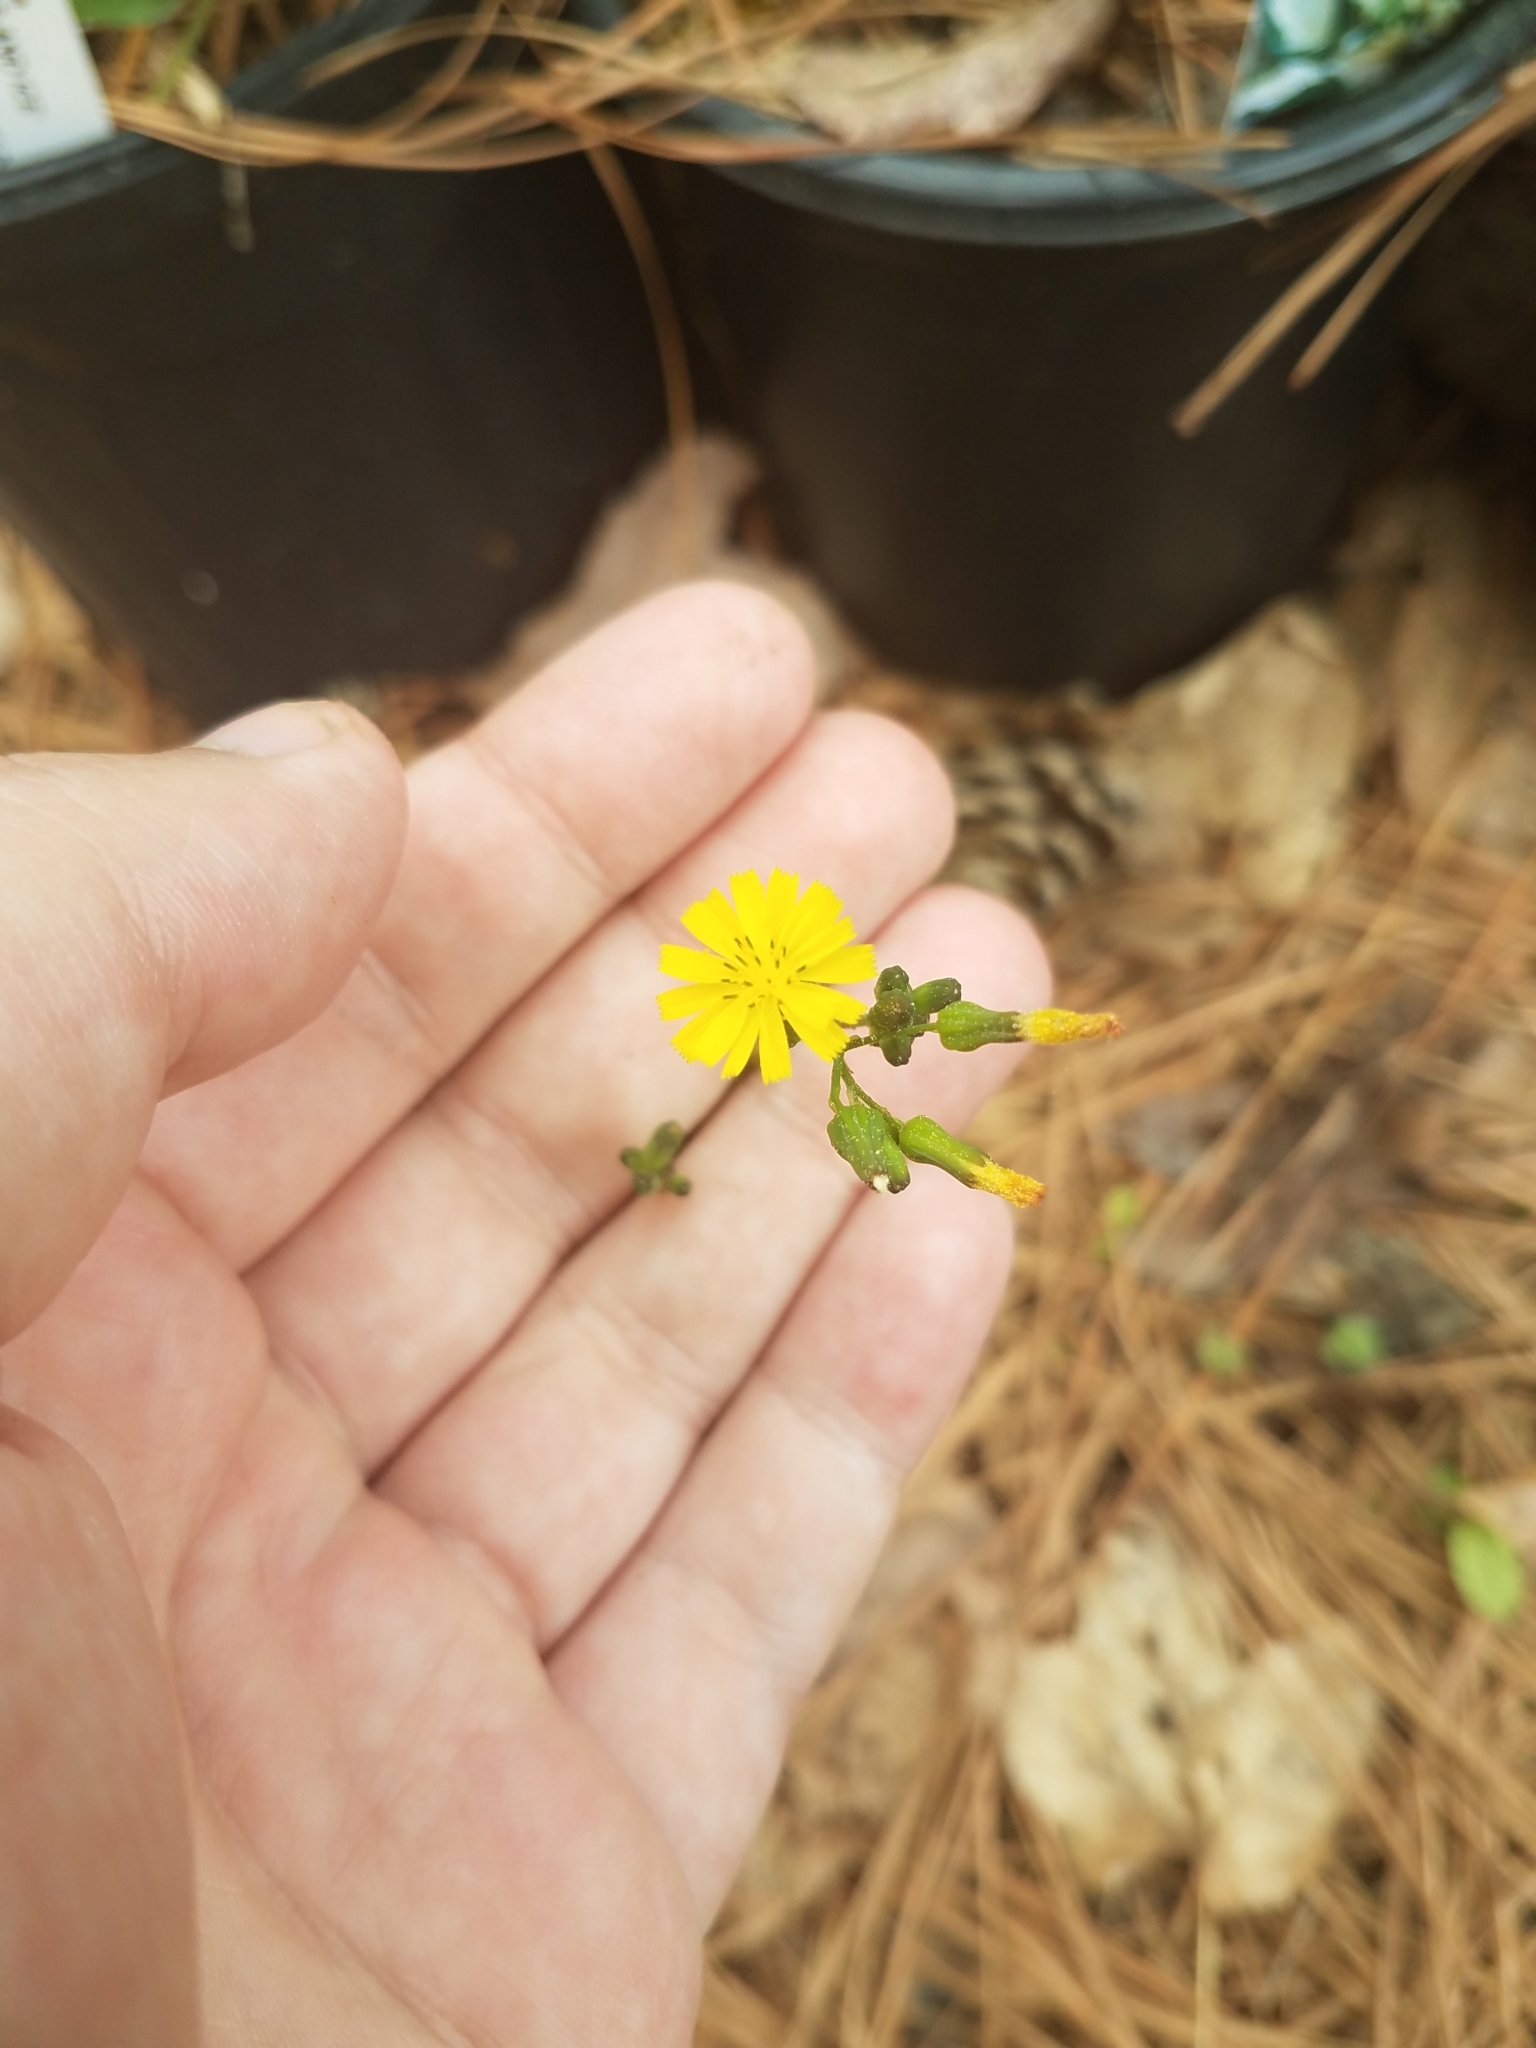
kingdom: Plantae
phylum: Tracheophyta
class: Magnoliopsida
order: Asterales
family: Asteraceae
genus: Youngia
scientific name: Youngia japonica
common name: Oriental false hawksbeard
